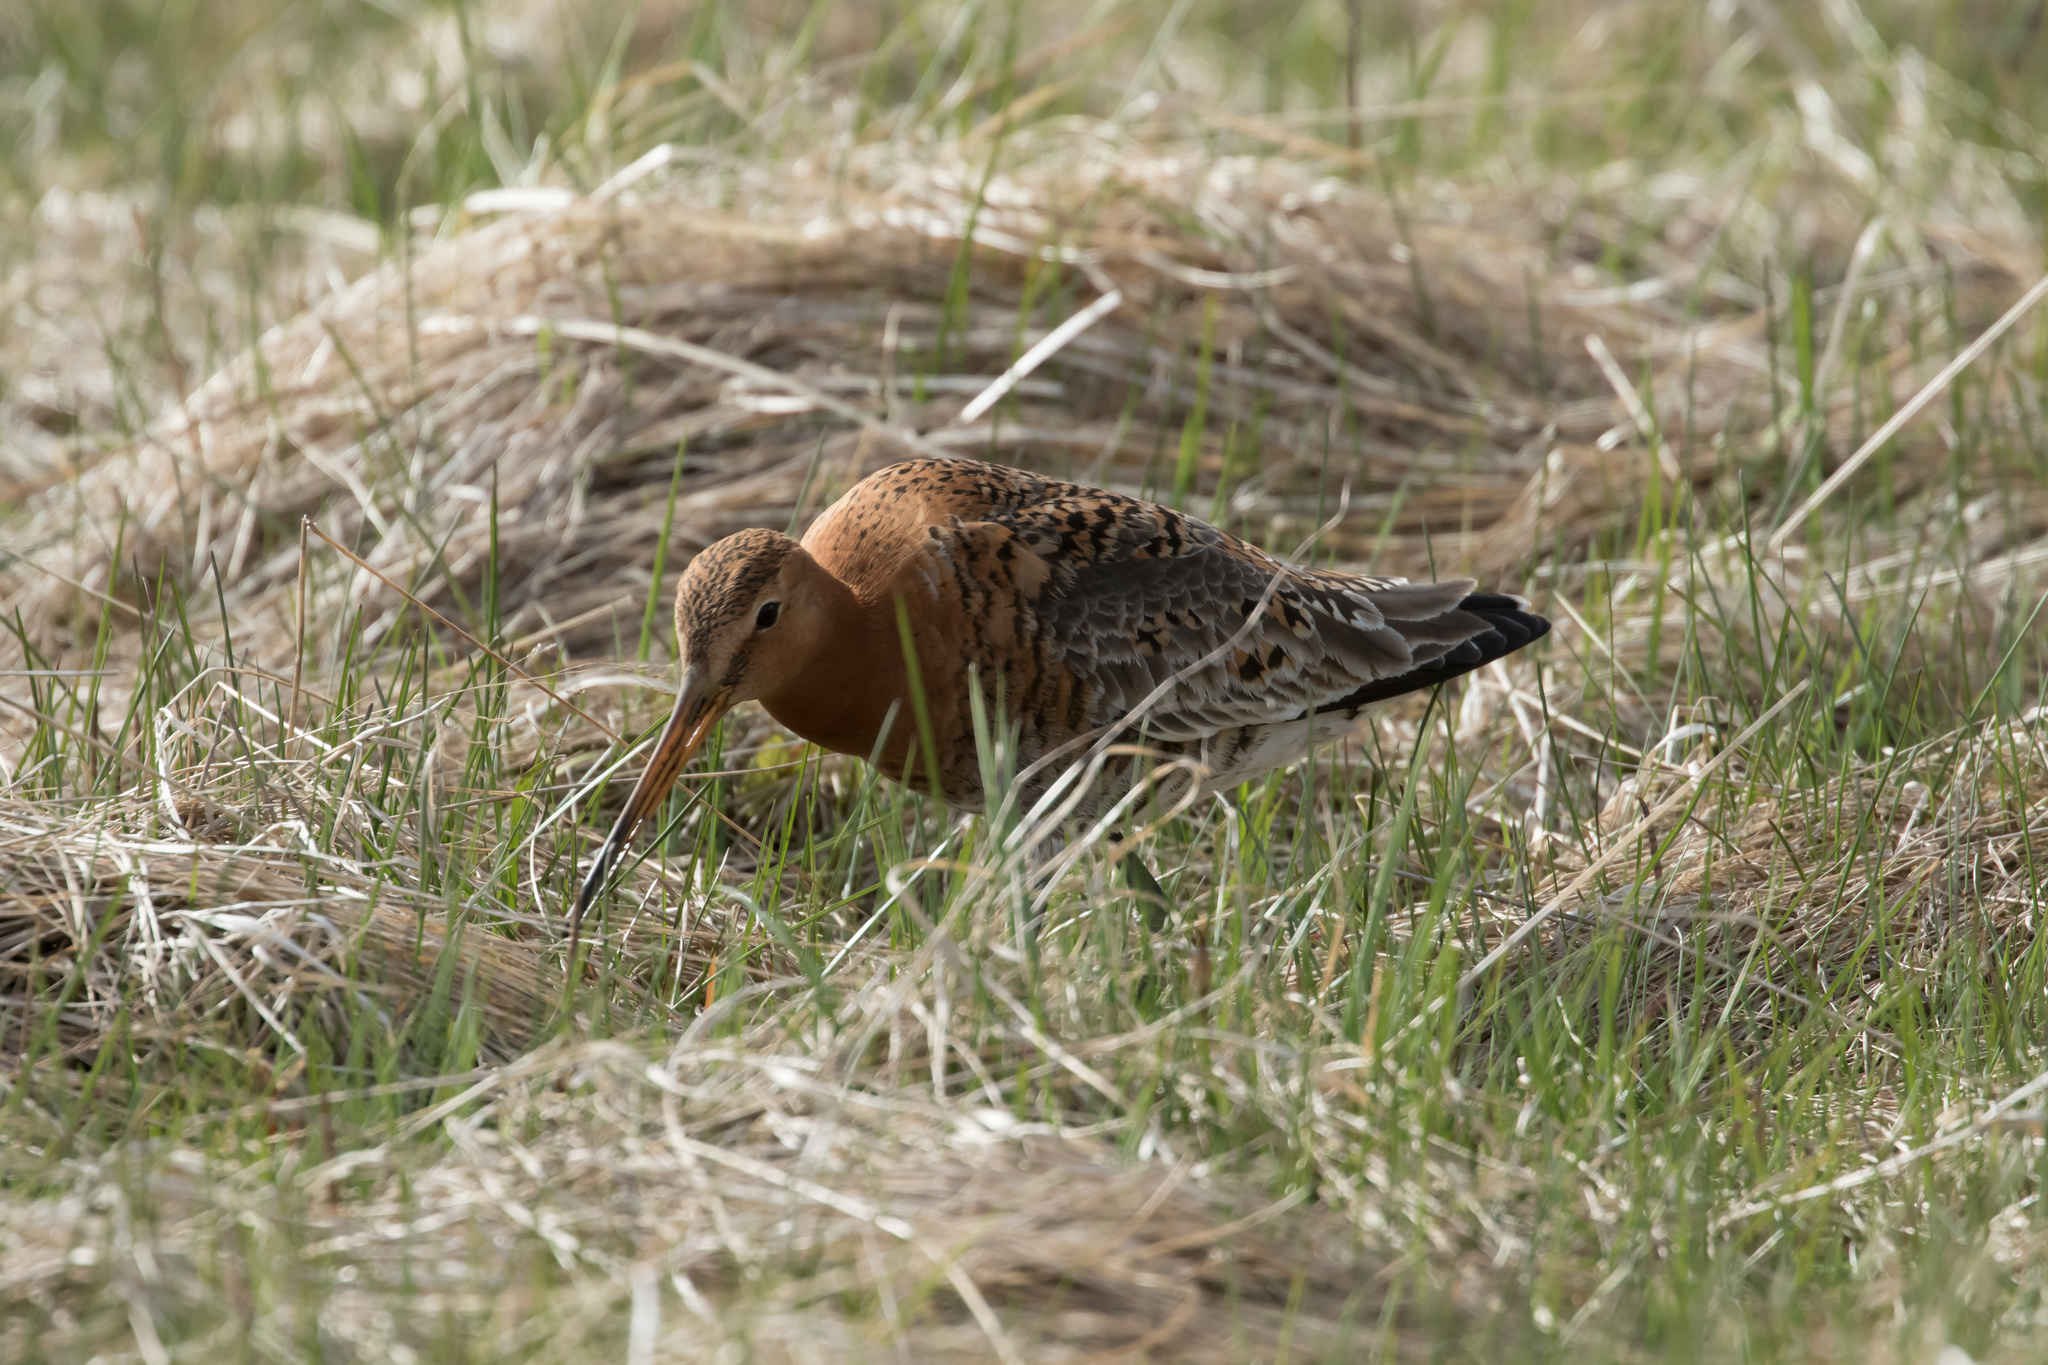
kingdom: Animalia
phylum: Chordata
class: Aves
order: Charadriiformes
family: Scolopacidae
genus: Limosa
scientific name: Limosa limosa
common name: Black-tailed godwit
